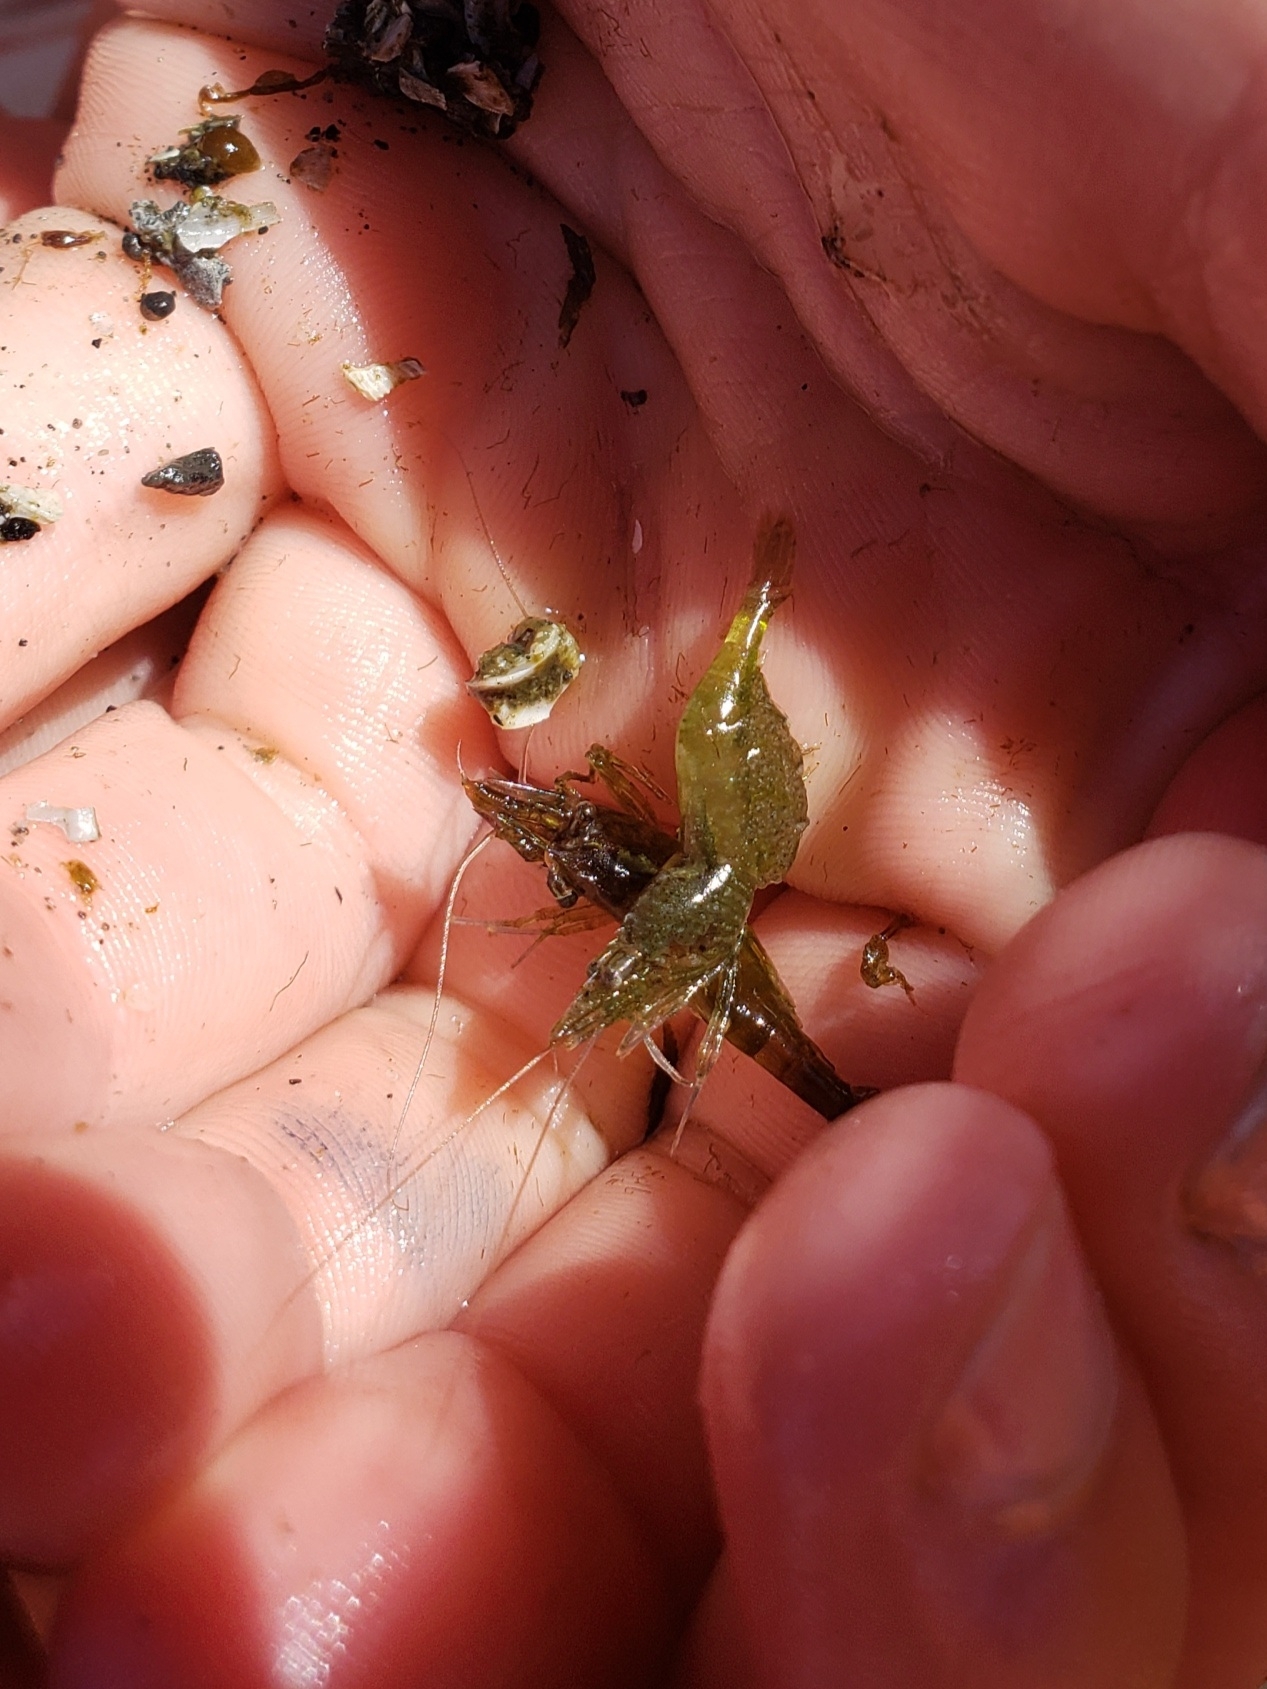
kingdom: Animalia
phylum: Arthropoda
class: Malacostraca
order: Decapoda
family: Thoridae
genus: Heptacarpus
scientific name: Heptacarpus sitchensis
